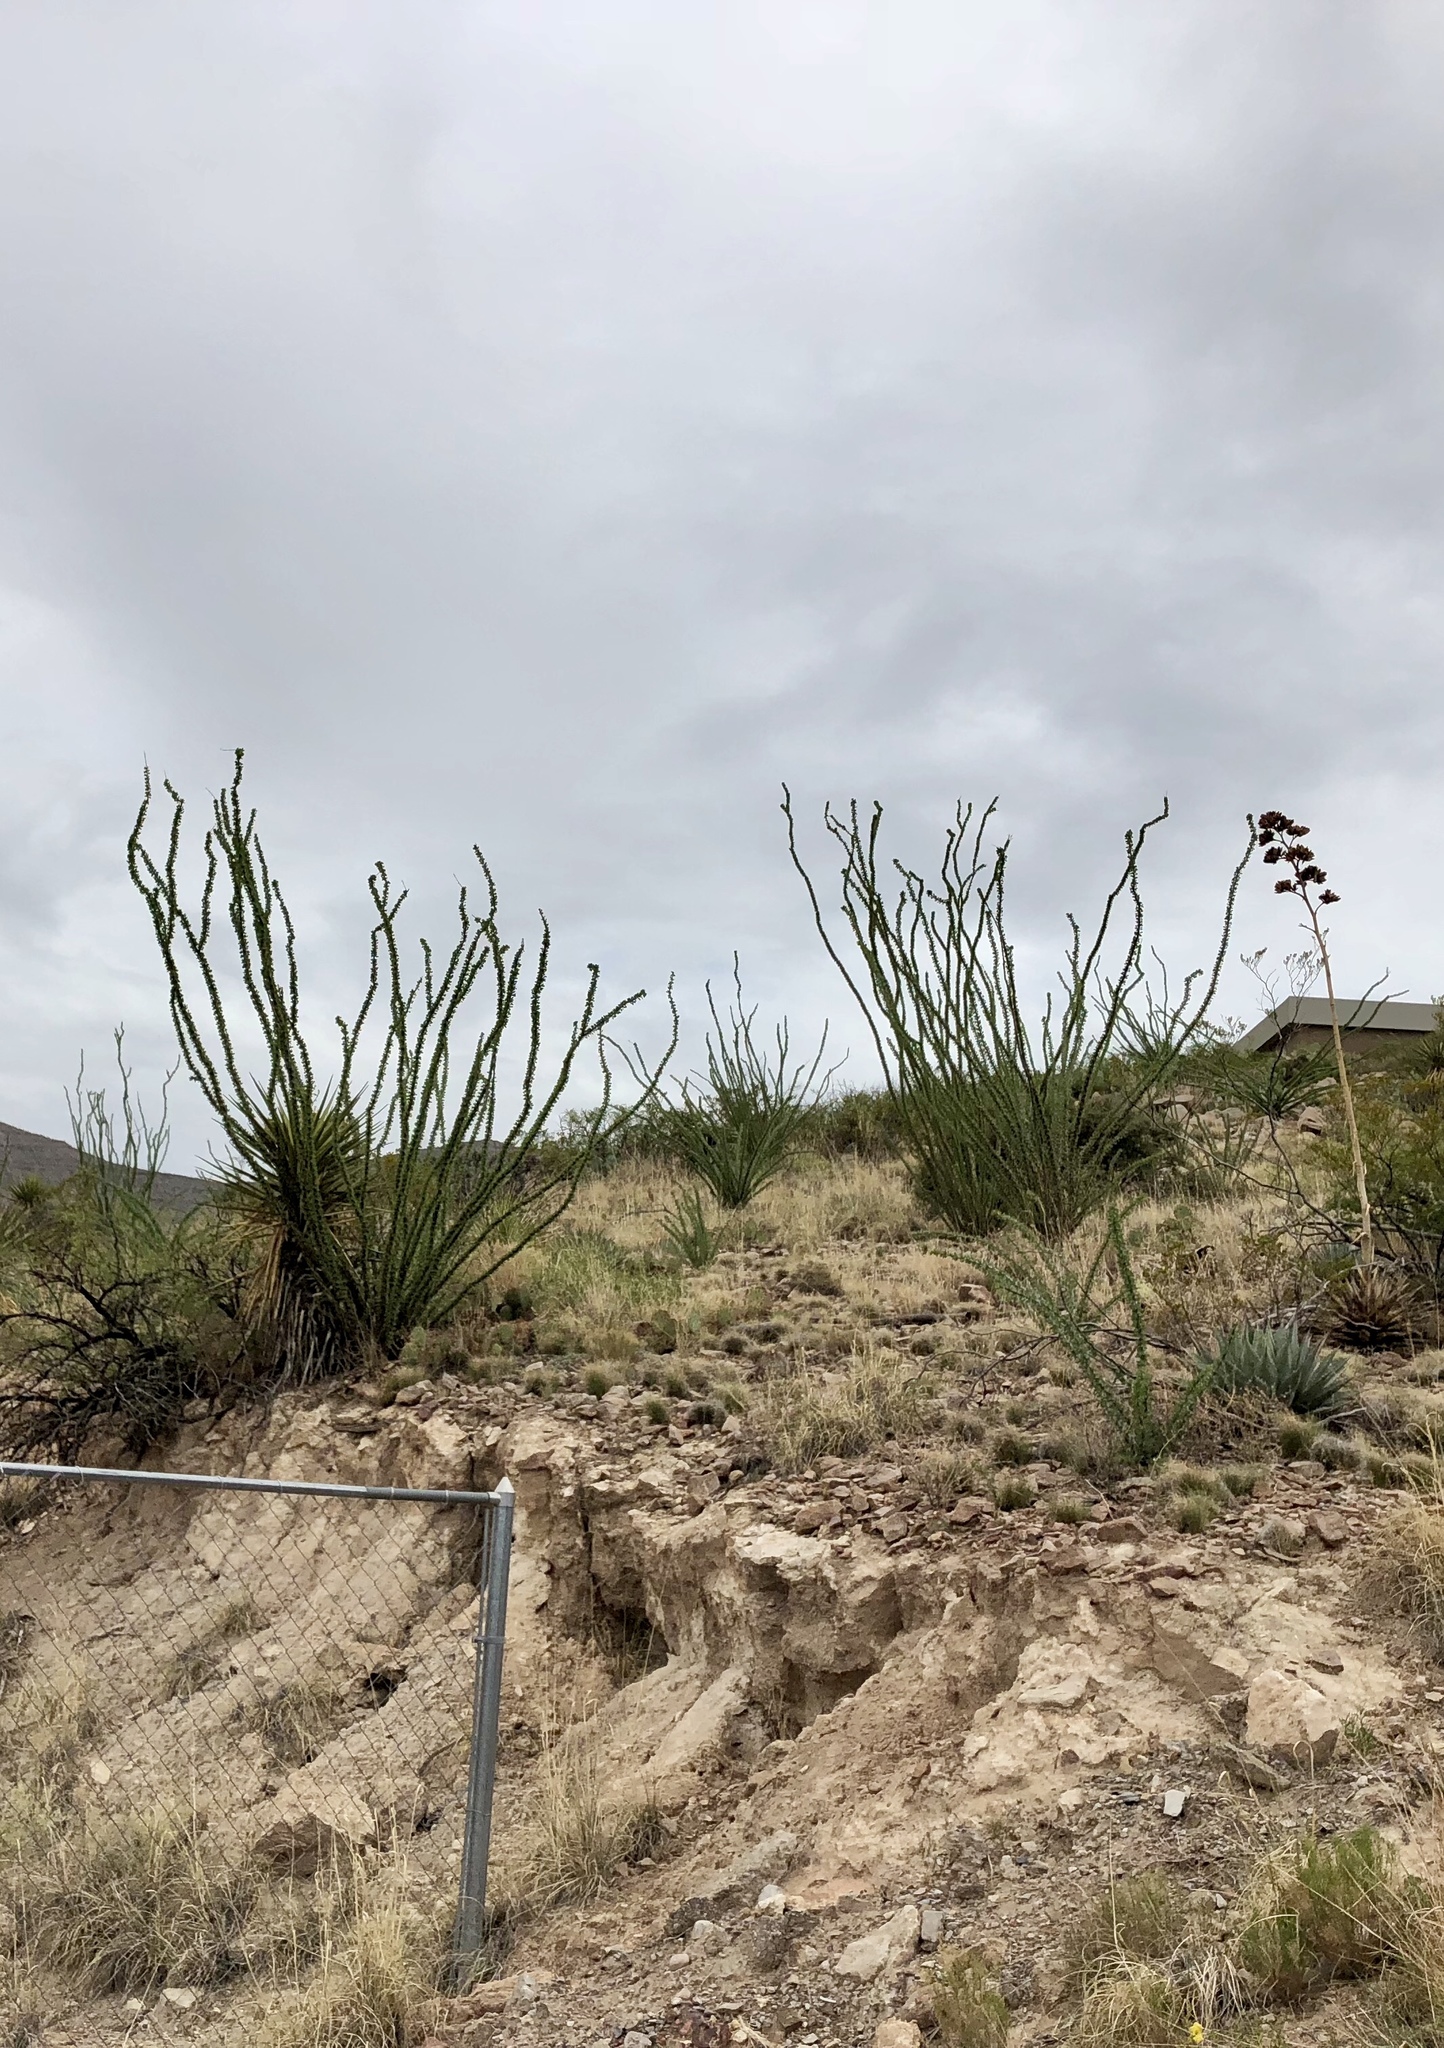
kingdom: Plantae
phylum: Tracheophyta
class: Magnoliopsida
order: Ericales
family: Fouquieriaceae
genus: Fouquieria
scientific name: Fouquieria splendens
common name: Vine-cactus
